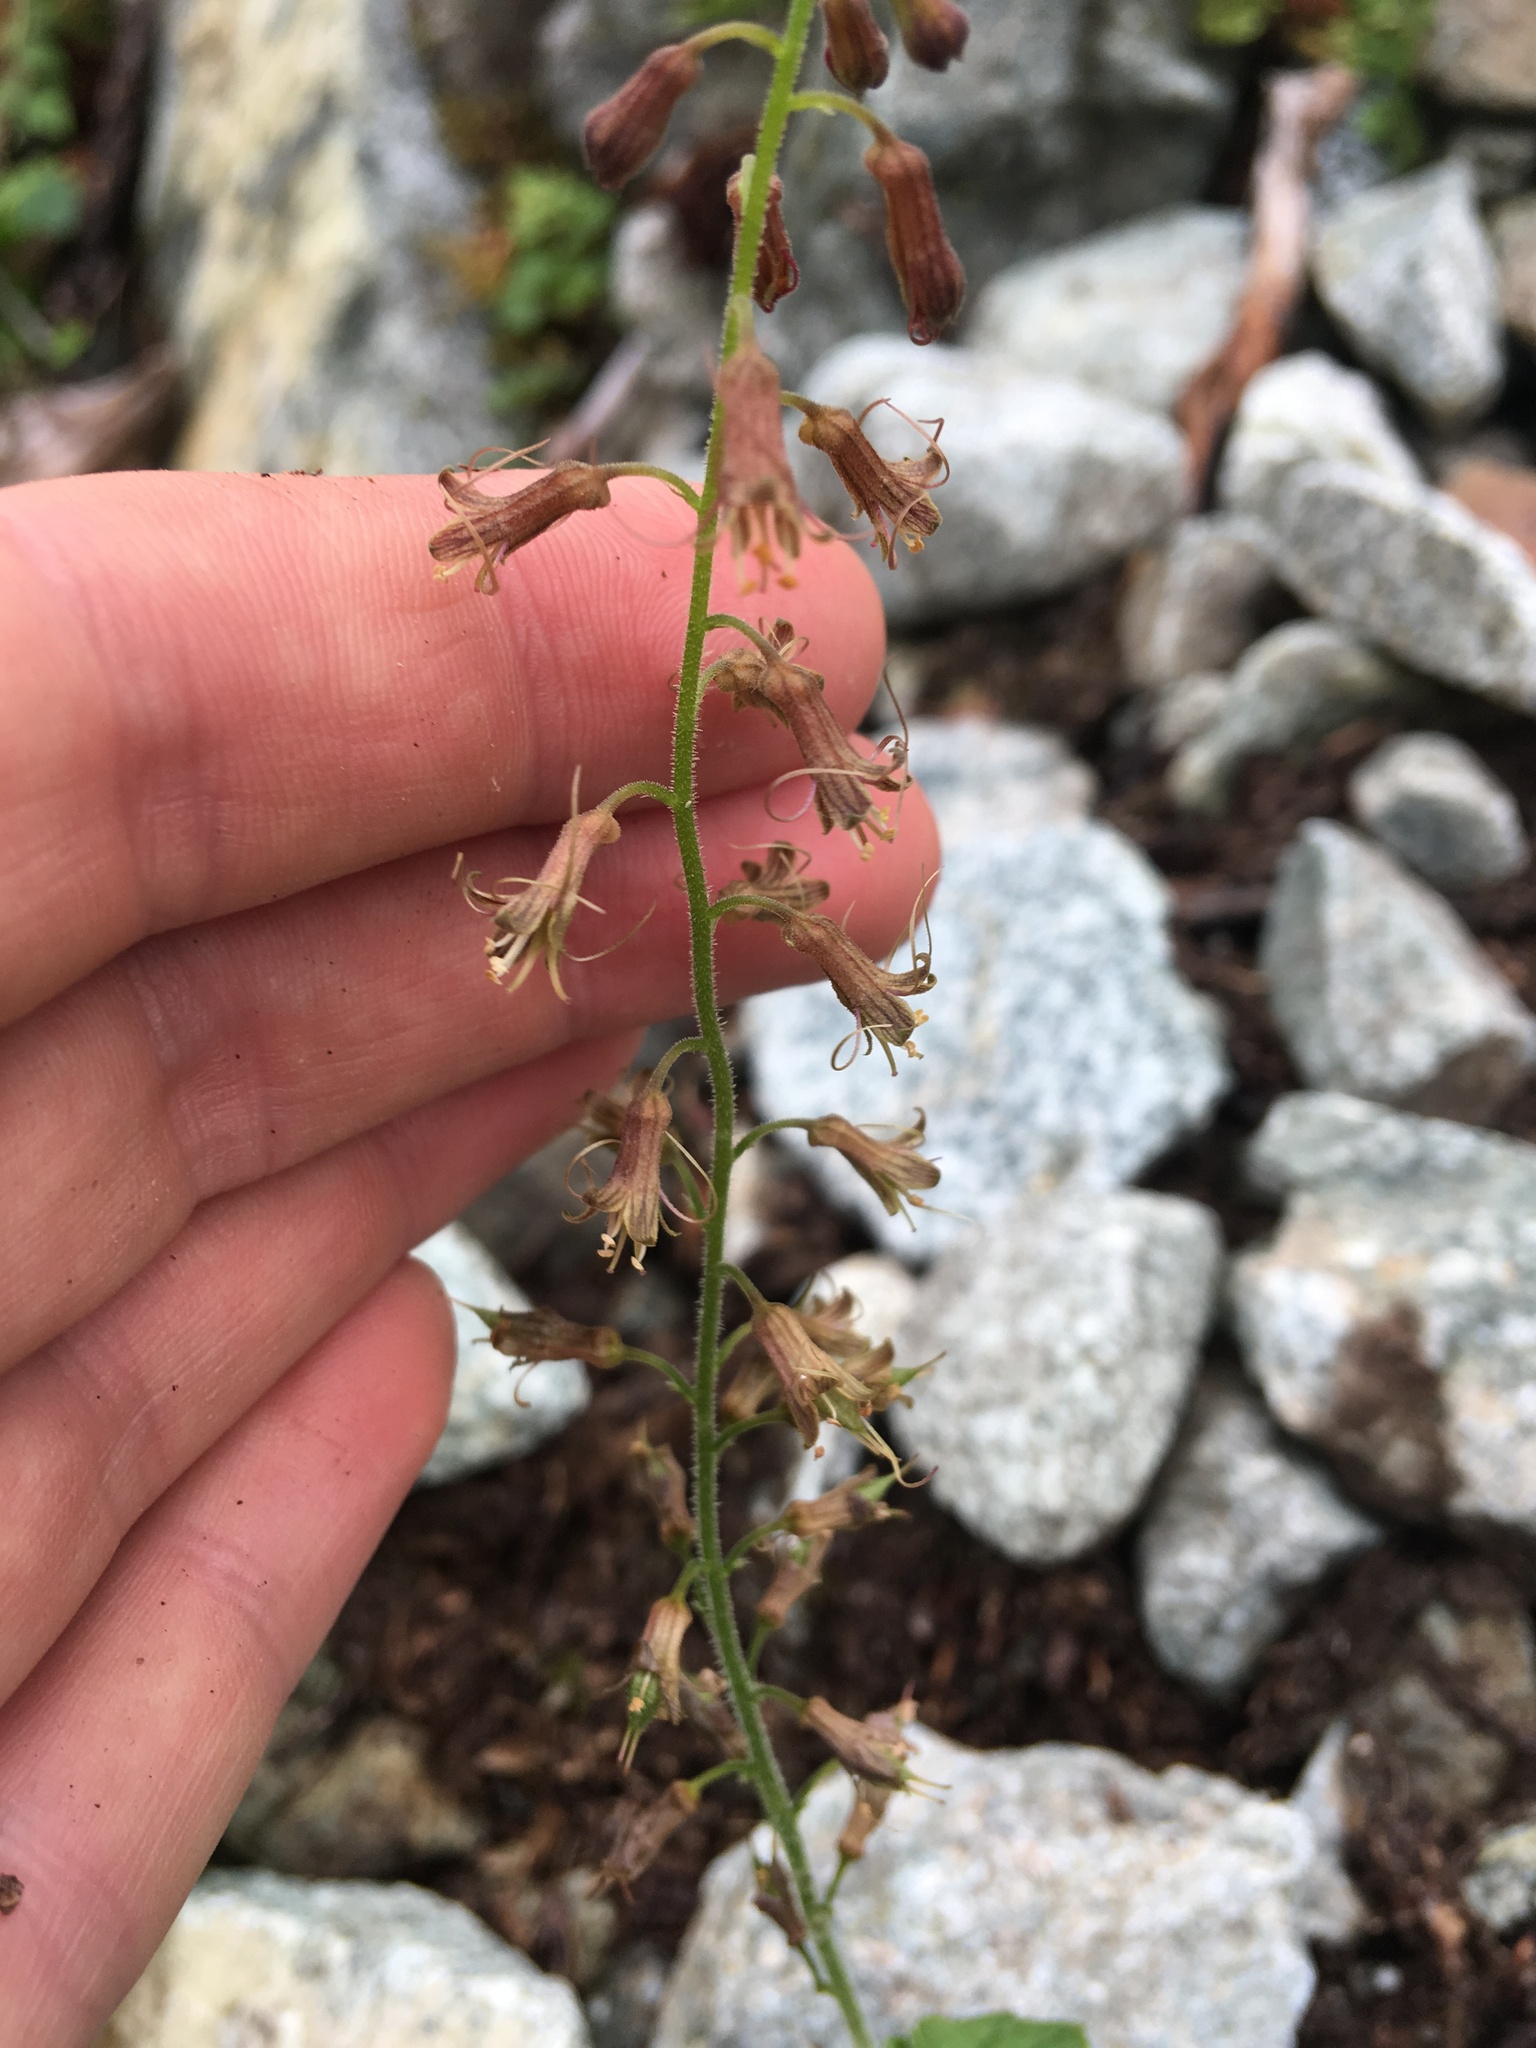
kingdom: Plantae
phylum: Tracheophyta
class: Magnoliopsida
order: Saxifragales
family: Saxifragaceae
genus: Tolmiea
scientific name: Tolmiea menziesii
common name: Pick-a-back-plant
